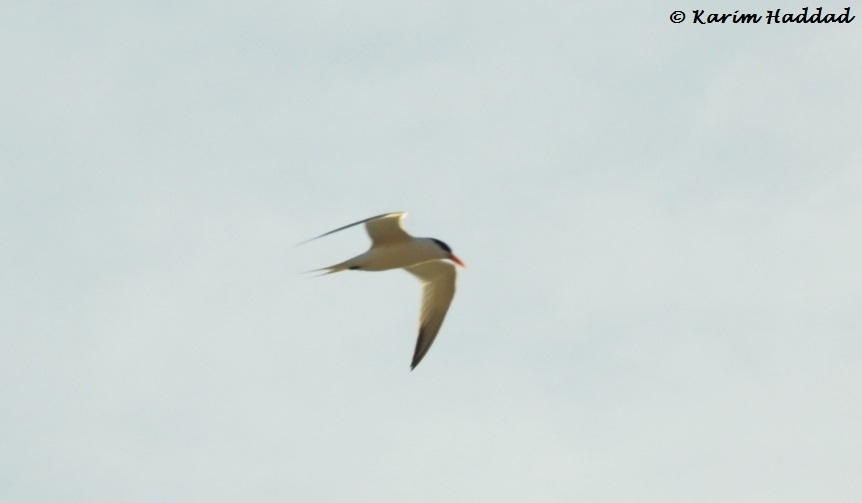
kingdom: Animalia
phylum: Chordata
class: Aves
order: Charadriiformes
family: Laridae
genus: Thalasseus
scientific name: Thalasseus bengalensis
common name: Lesser crested tern
